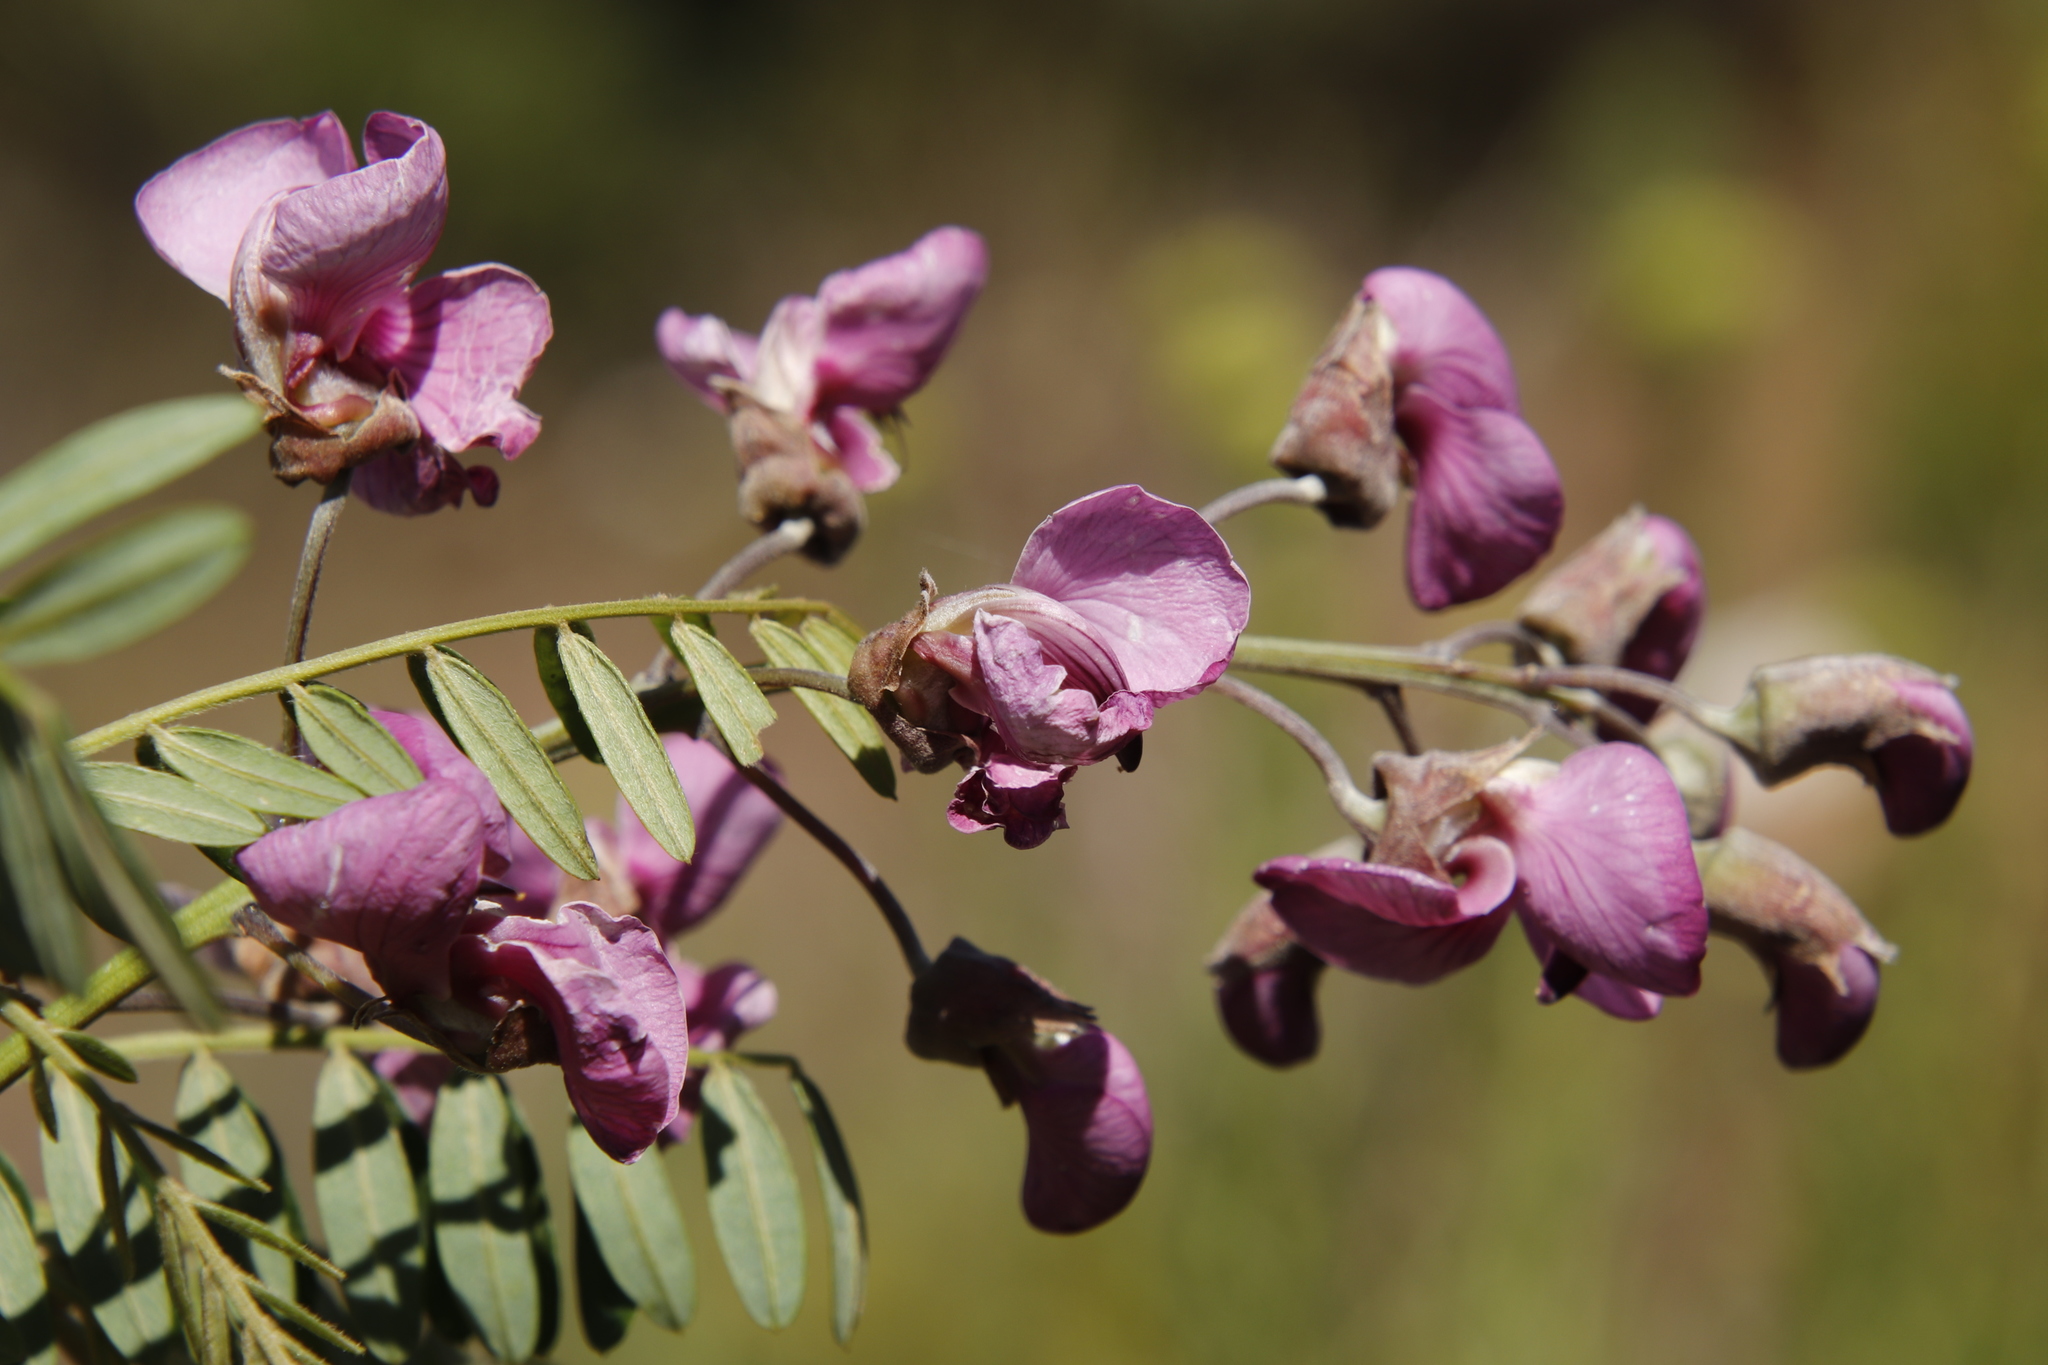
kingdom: Plantae
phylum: Tracheophyta
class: Magnoliopsida
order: Fabales
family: Fabaceae
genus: Virgilia
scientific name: Virgilia divaricata
